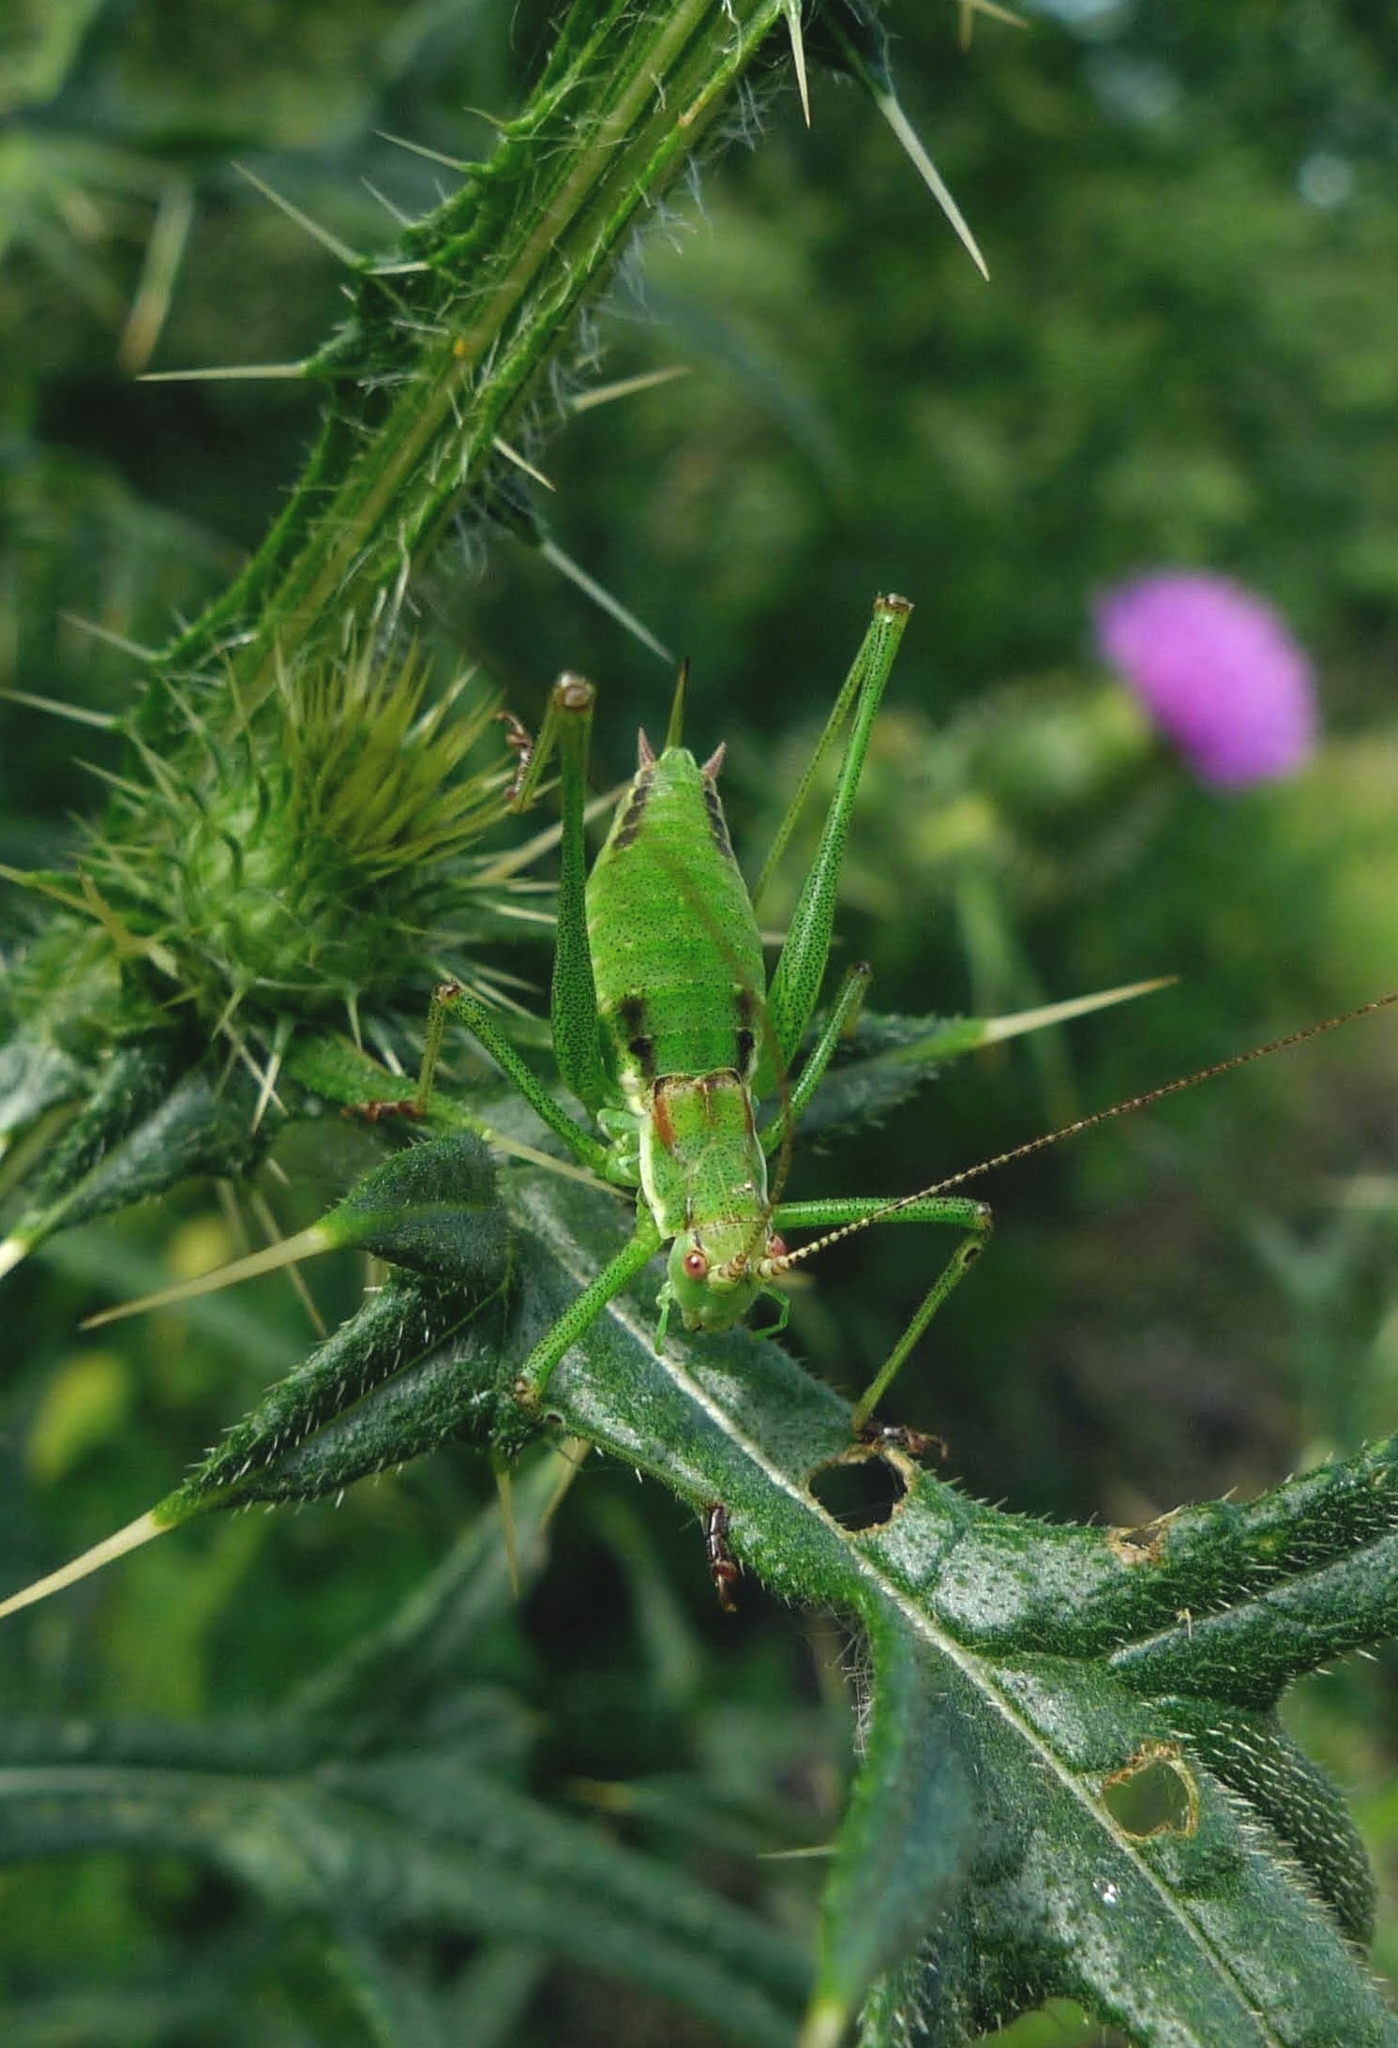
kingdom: Animalia
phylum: Arthropoda
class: Insecta
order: Orthoptera
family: Tettigoniidae
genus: Leptophyes
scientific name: Leptophyes albovittata
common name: Striped bush-cricket
